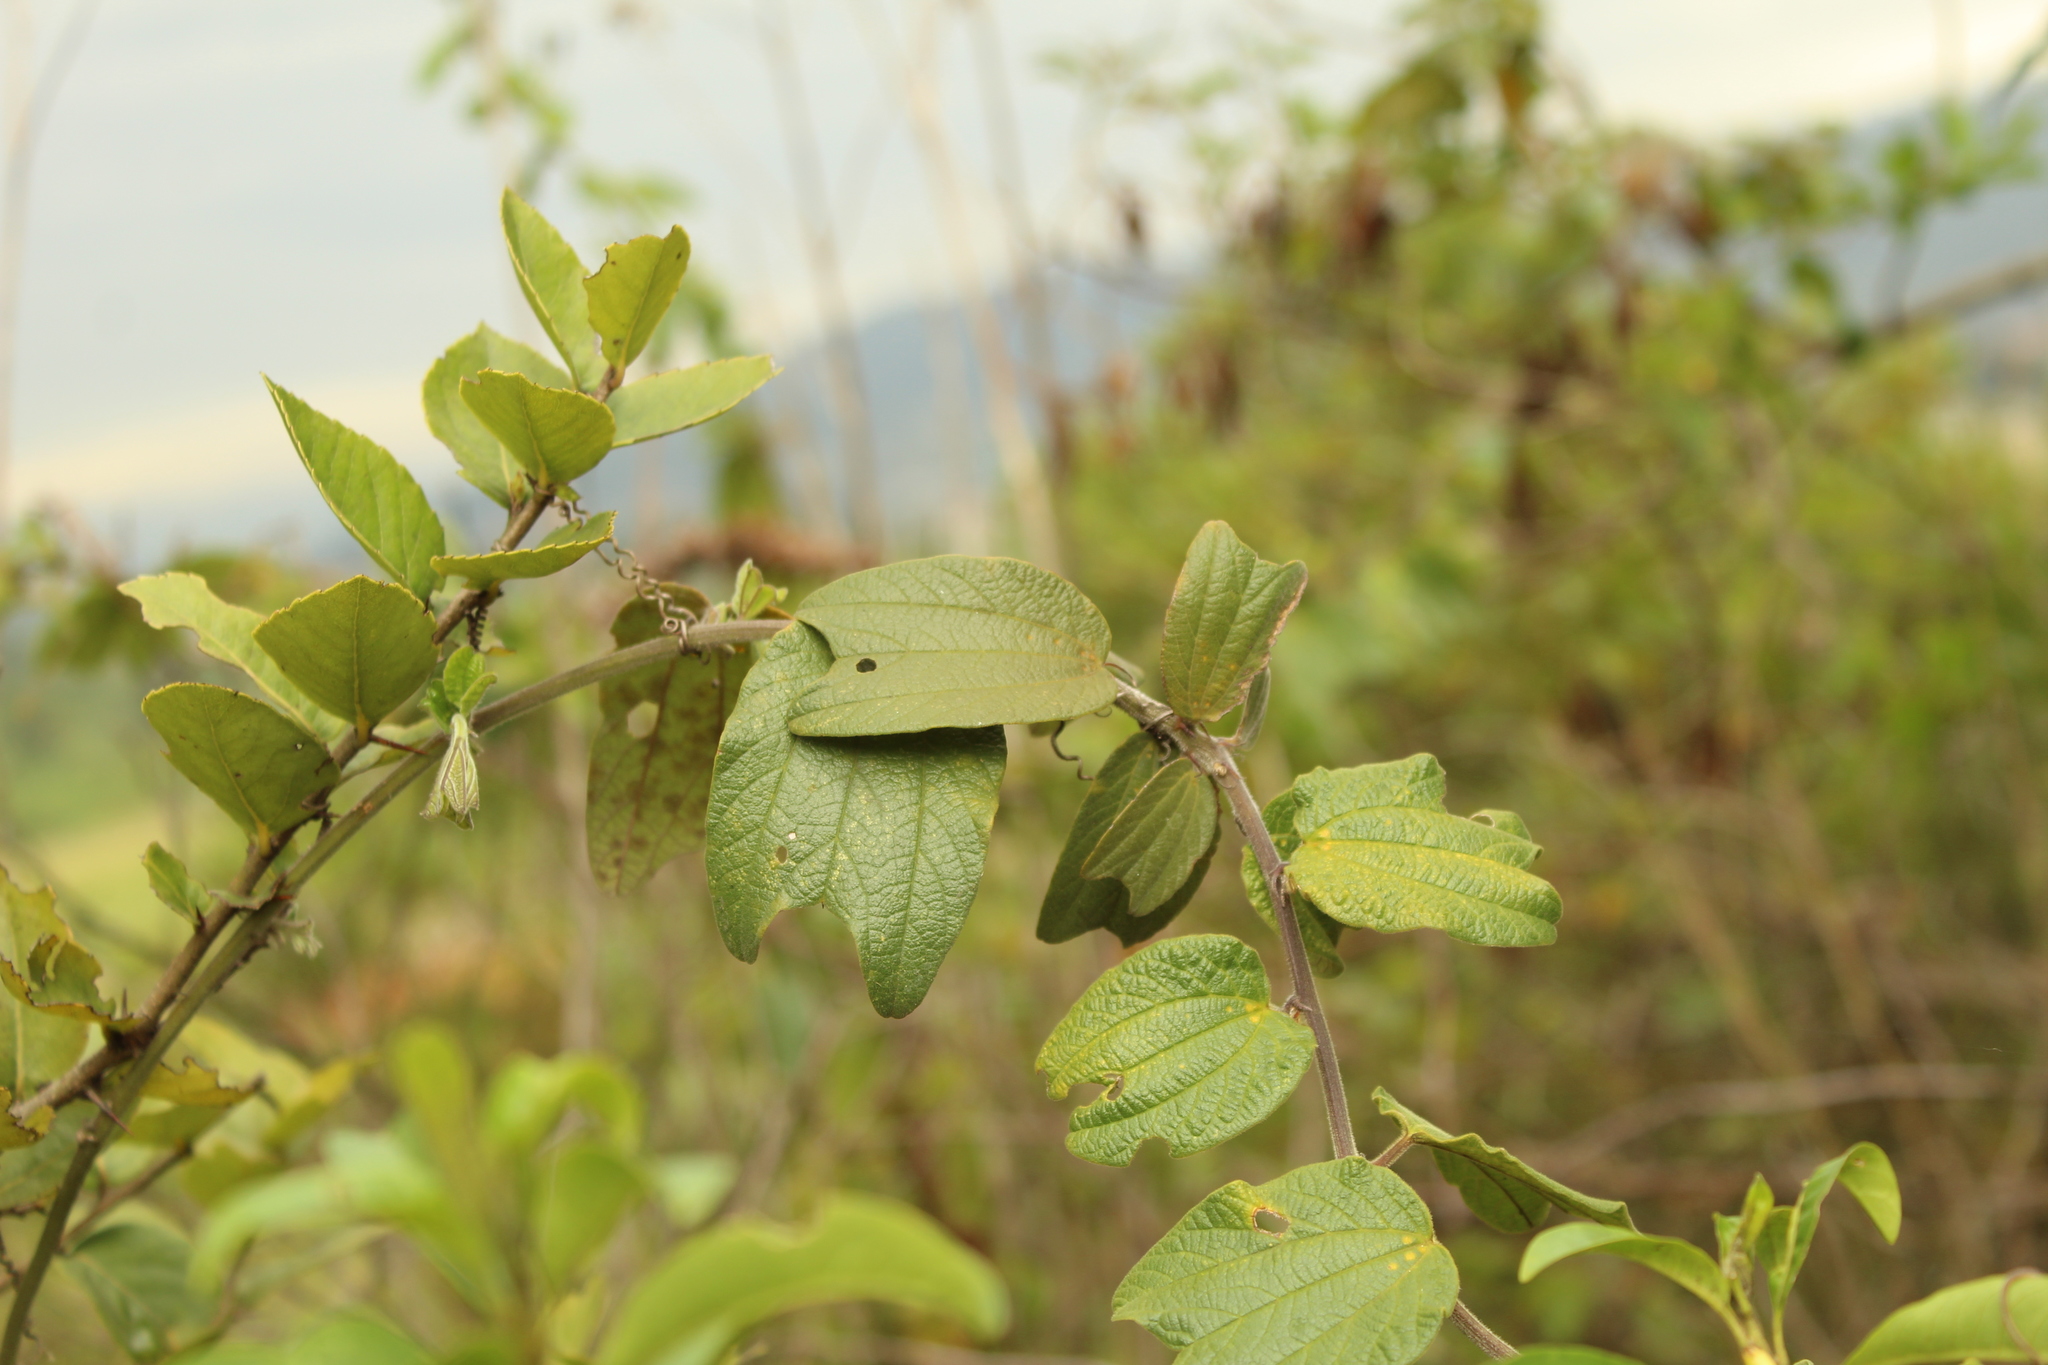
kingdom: Plantae
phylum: Tracheophyta
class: Magnoliopsida
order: Malpighiales
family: Passifloraceae
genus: Passiflora
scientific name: Passiflora bogotensis
